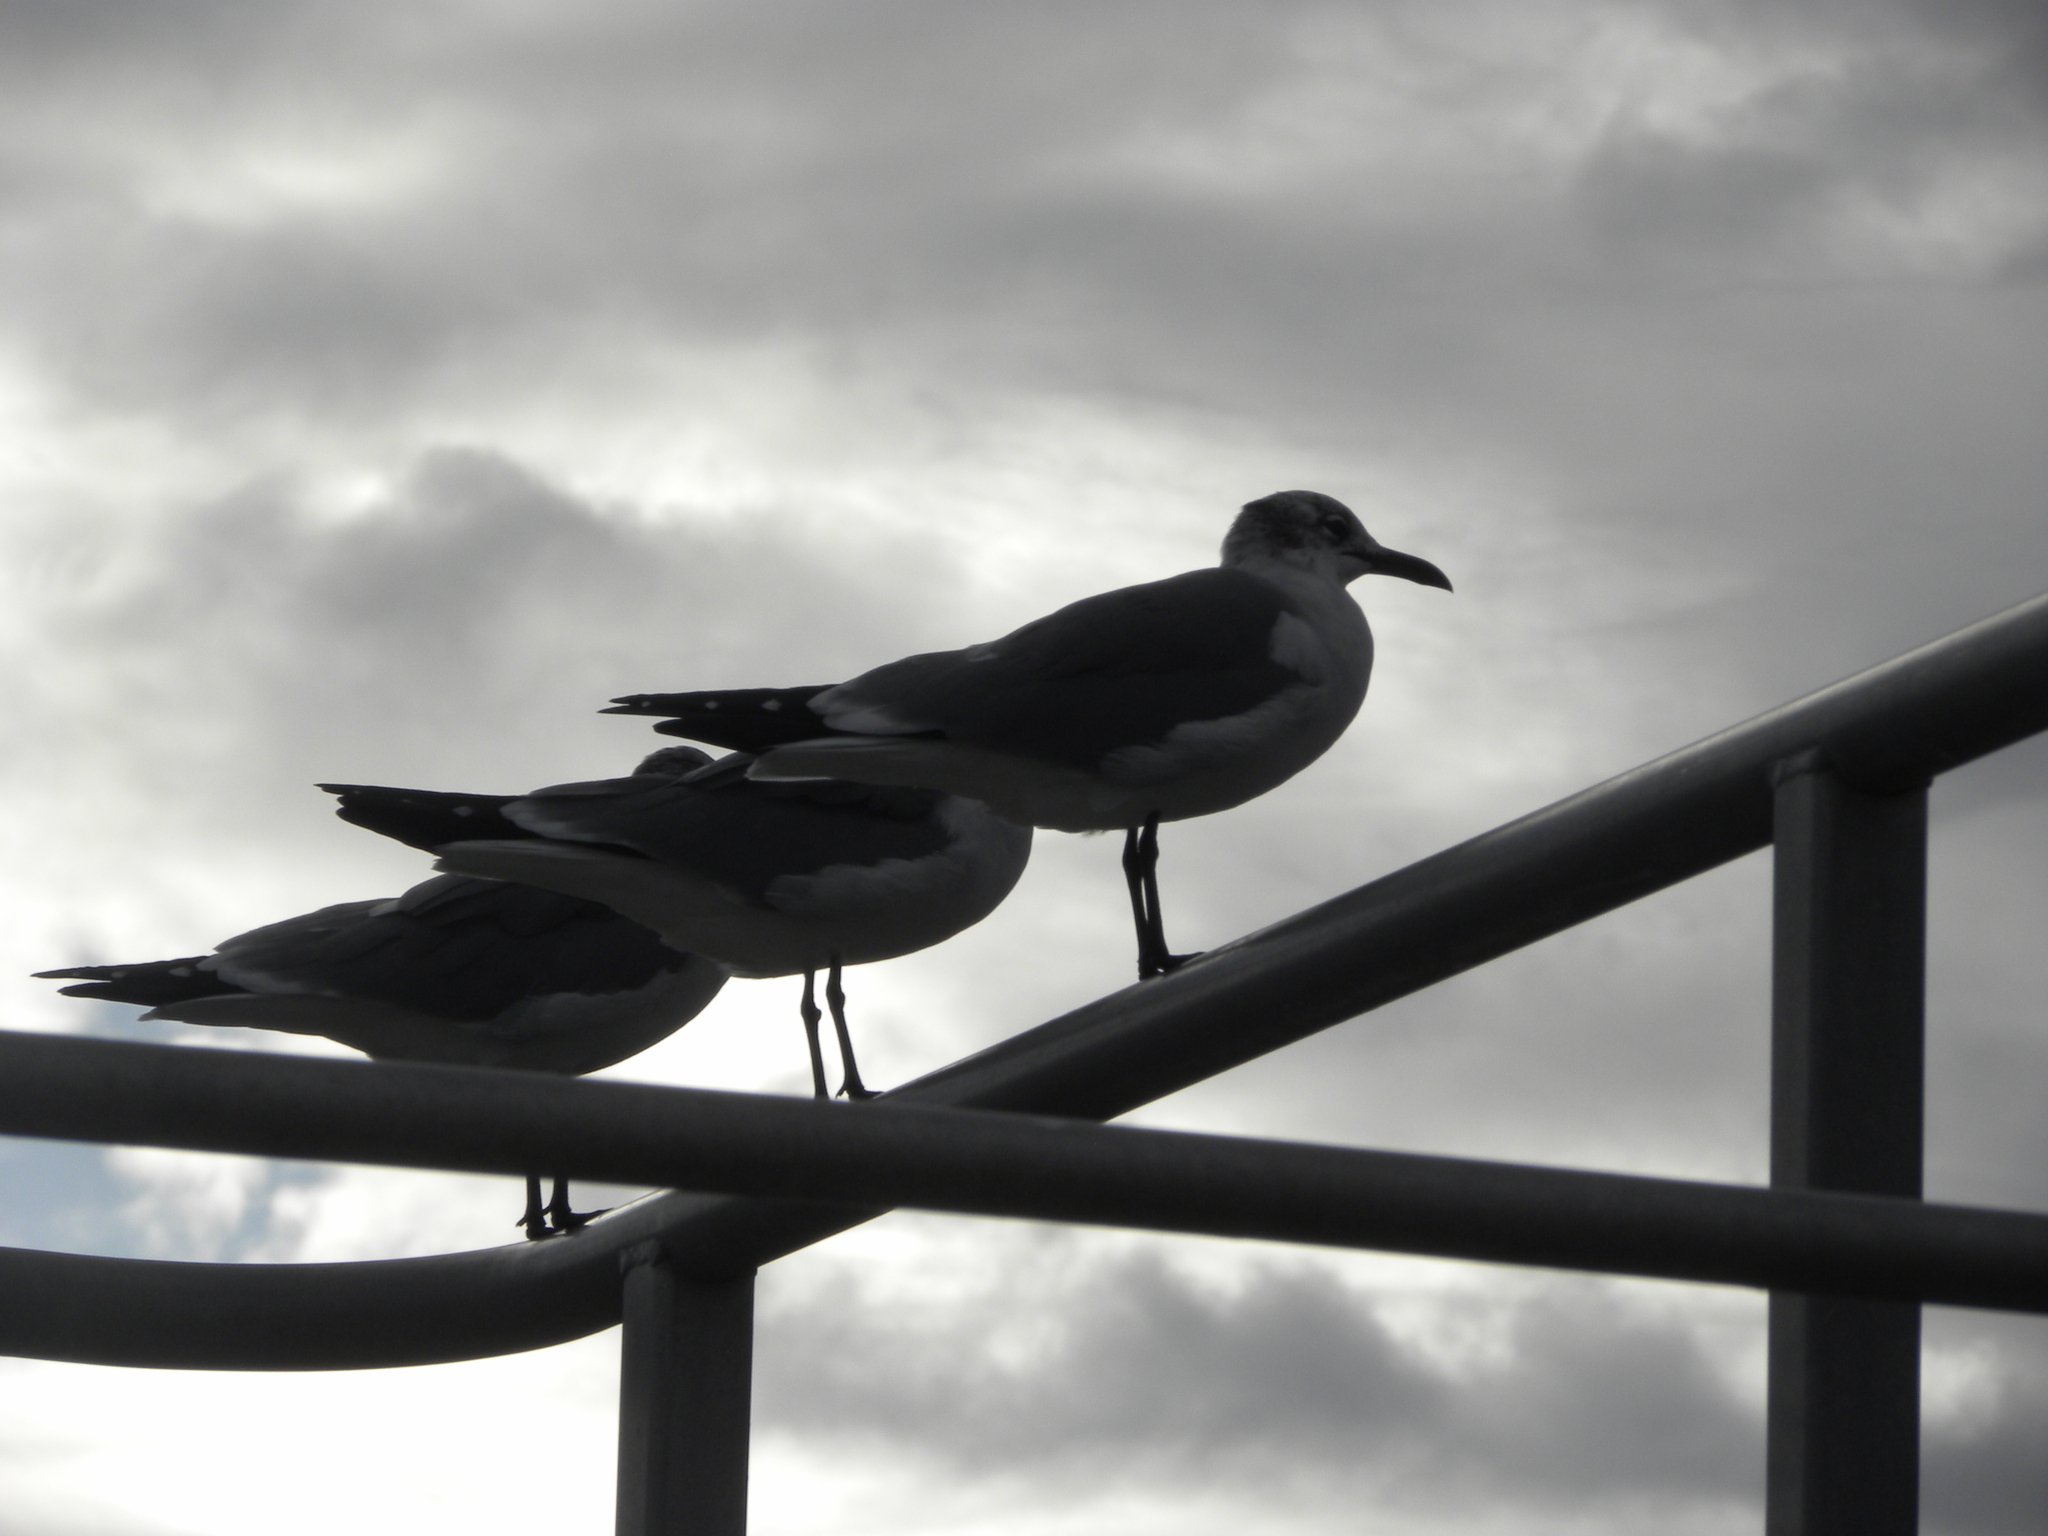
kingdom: Animalia
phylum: Chordata
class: Aves
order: Charadriiformes
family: Laridae
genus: Leucophaeus
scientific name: Leucophaeus atricilla
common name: Laughing gull
